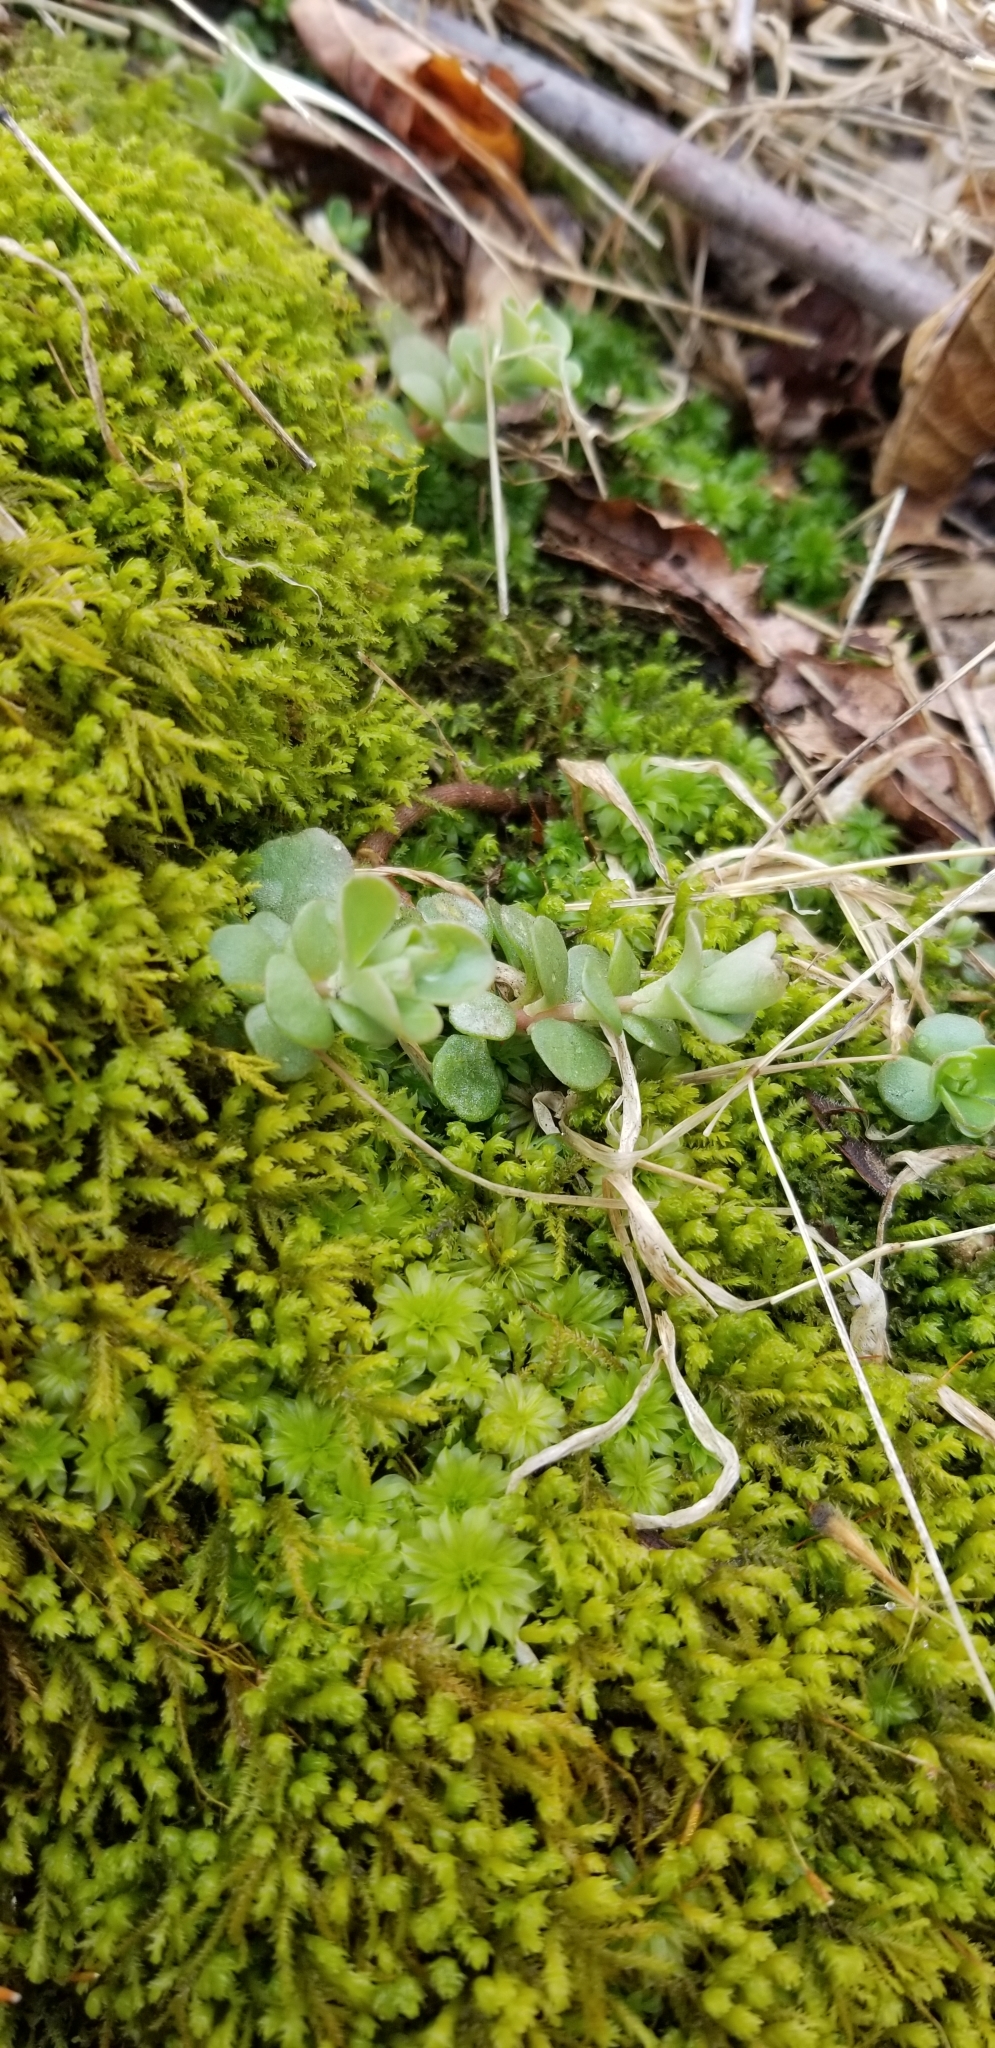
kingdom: Plantae
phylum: Tracheophyta
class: Magnoliopsida
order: Saxifragales
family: Crassulaceae
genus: Sedum
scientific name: Sedum ternatum
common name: Wild stonecrop
